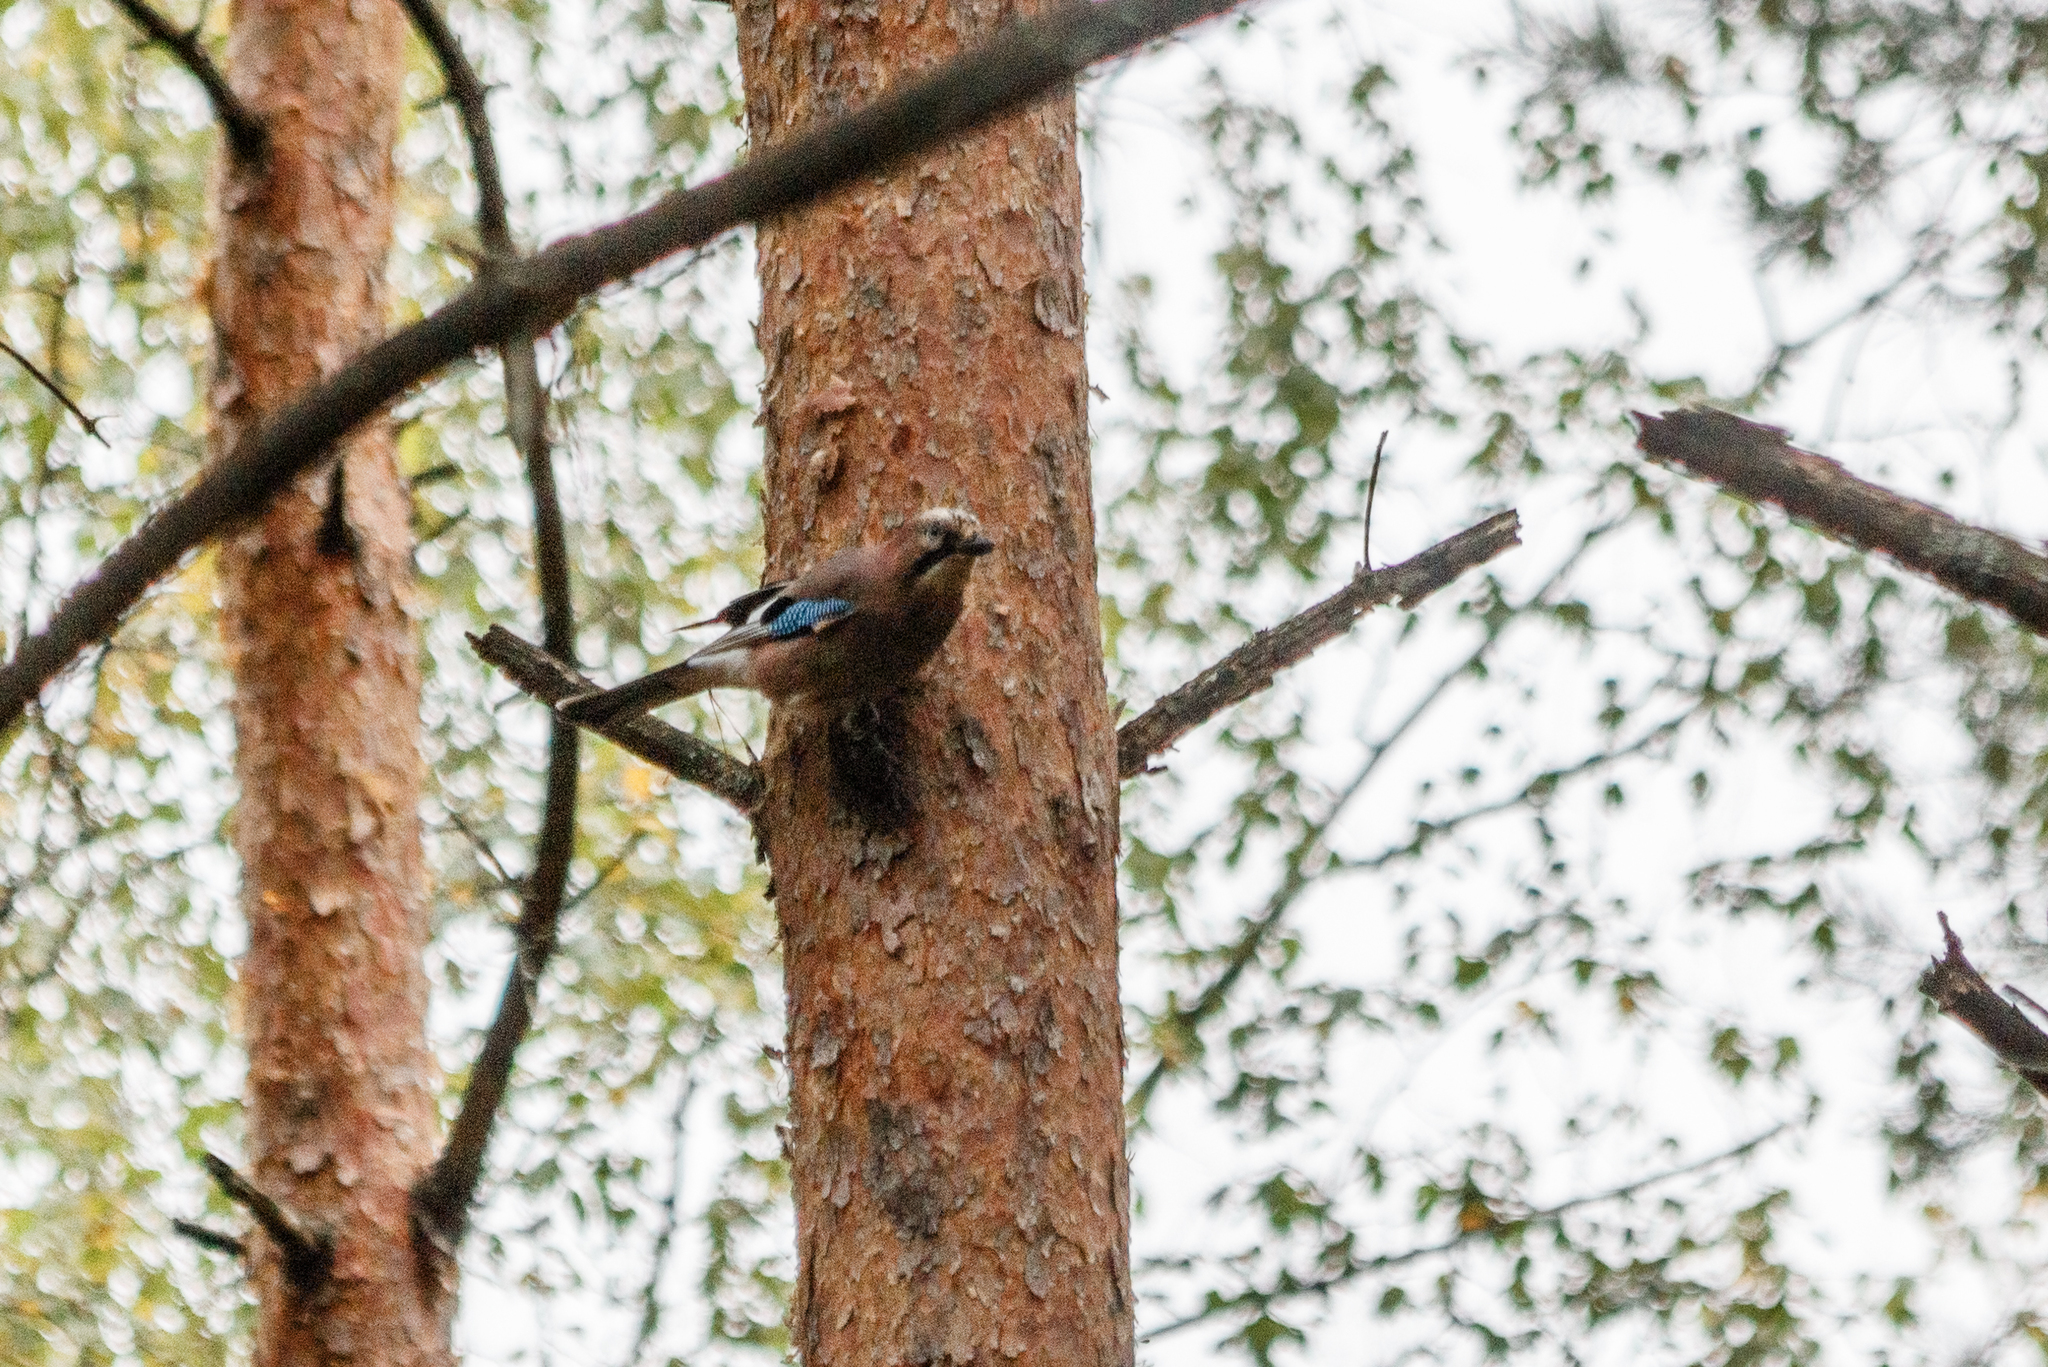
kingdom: Animalia
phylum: Chordata
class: Aves
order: Passeriformes
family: Corvidae
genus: Garrulus
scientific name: Garrulus glandarius
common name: Eurasian jay
